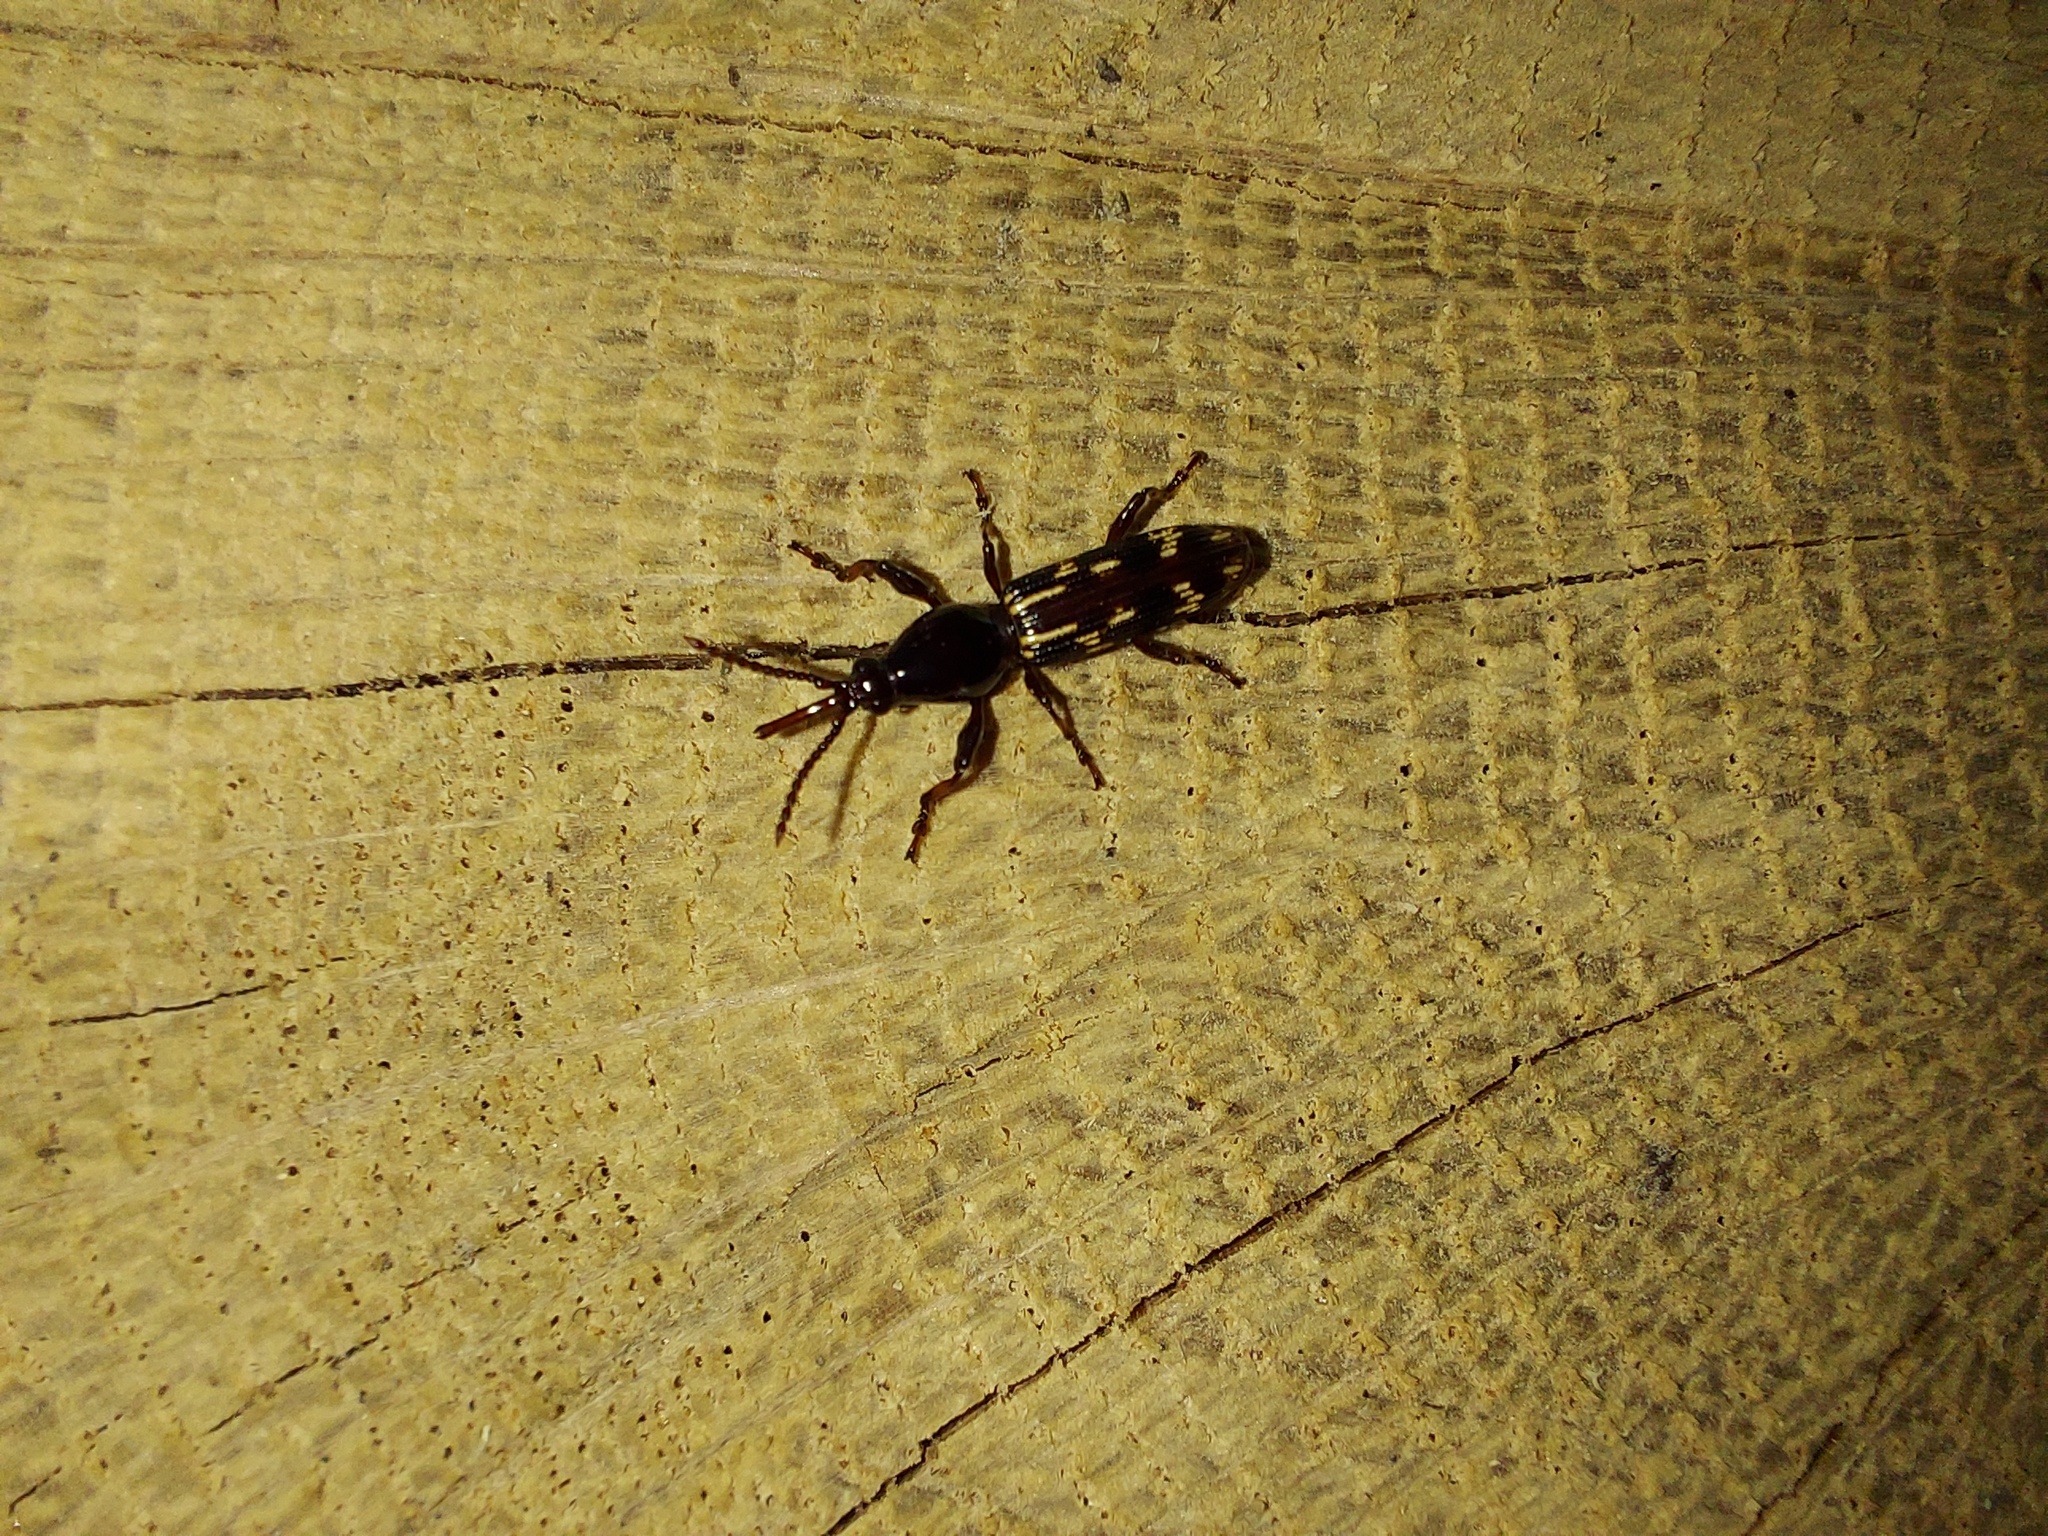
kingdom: Animalia
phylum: Arthropoda
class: Insecta
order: Coleoptera
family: Brentidae
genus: Arrenodes
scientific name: Arrenodes minutus
